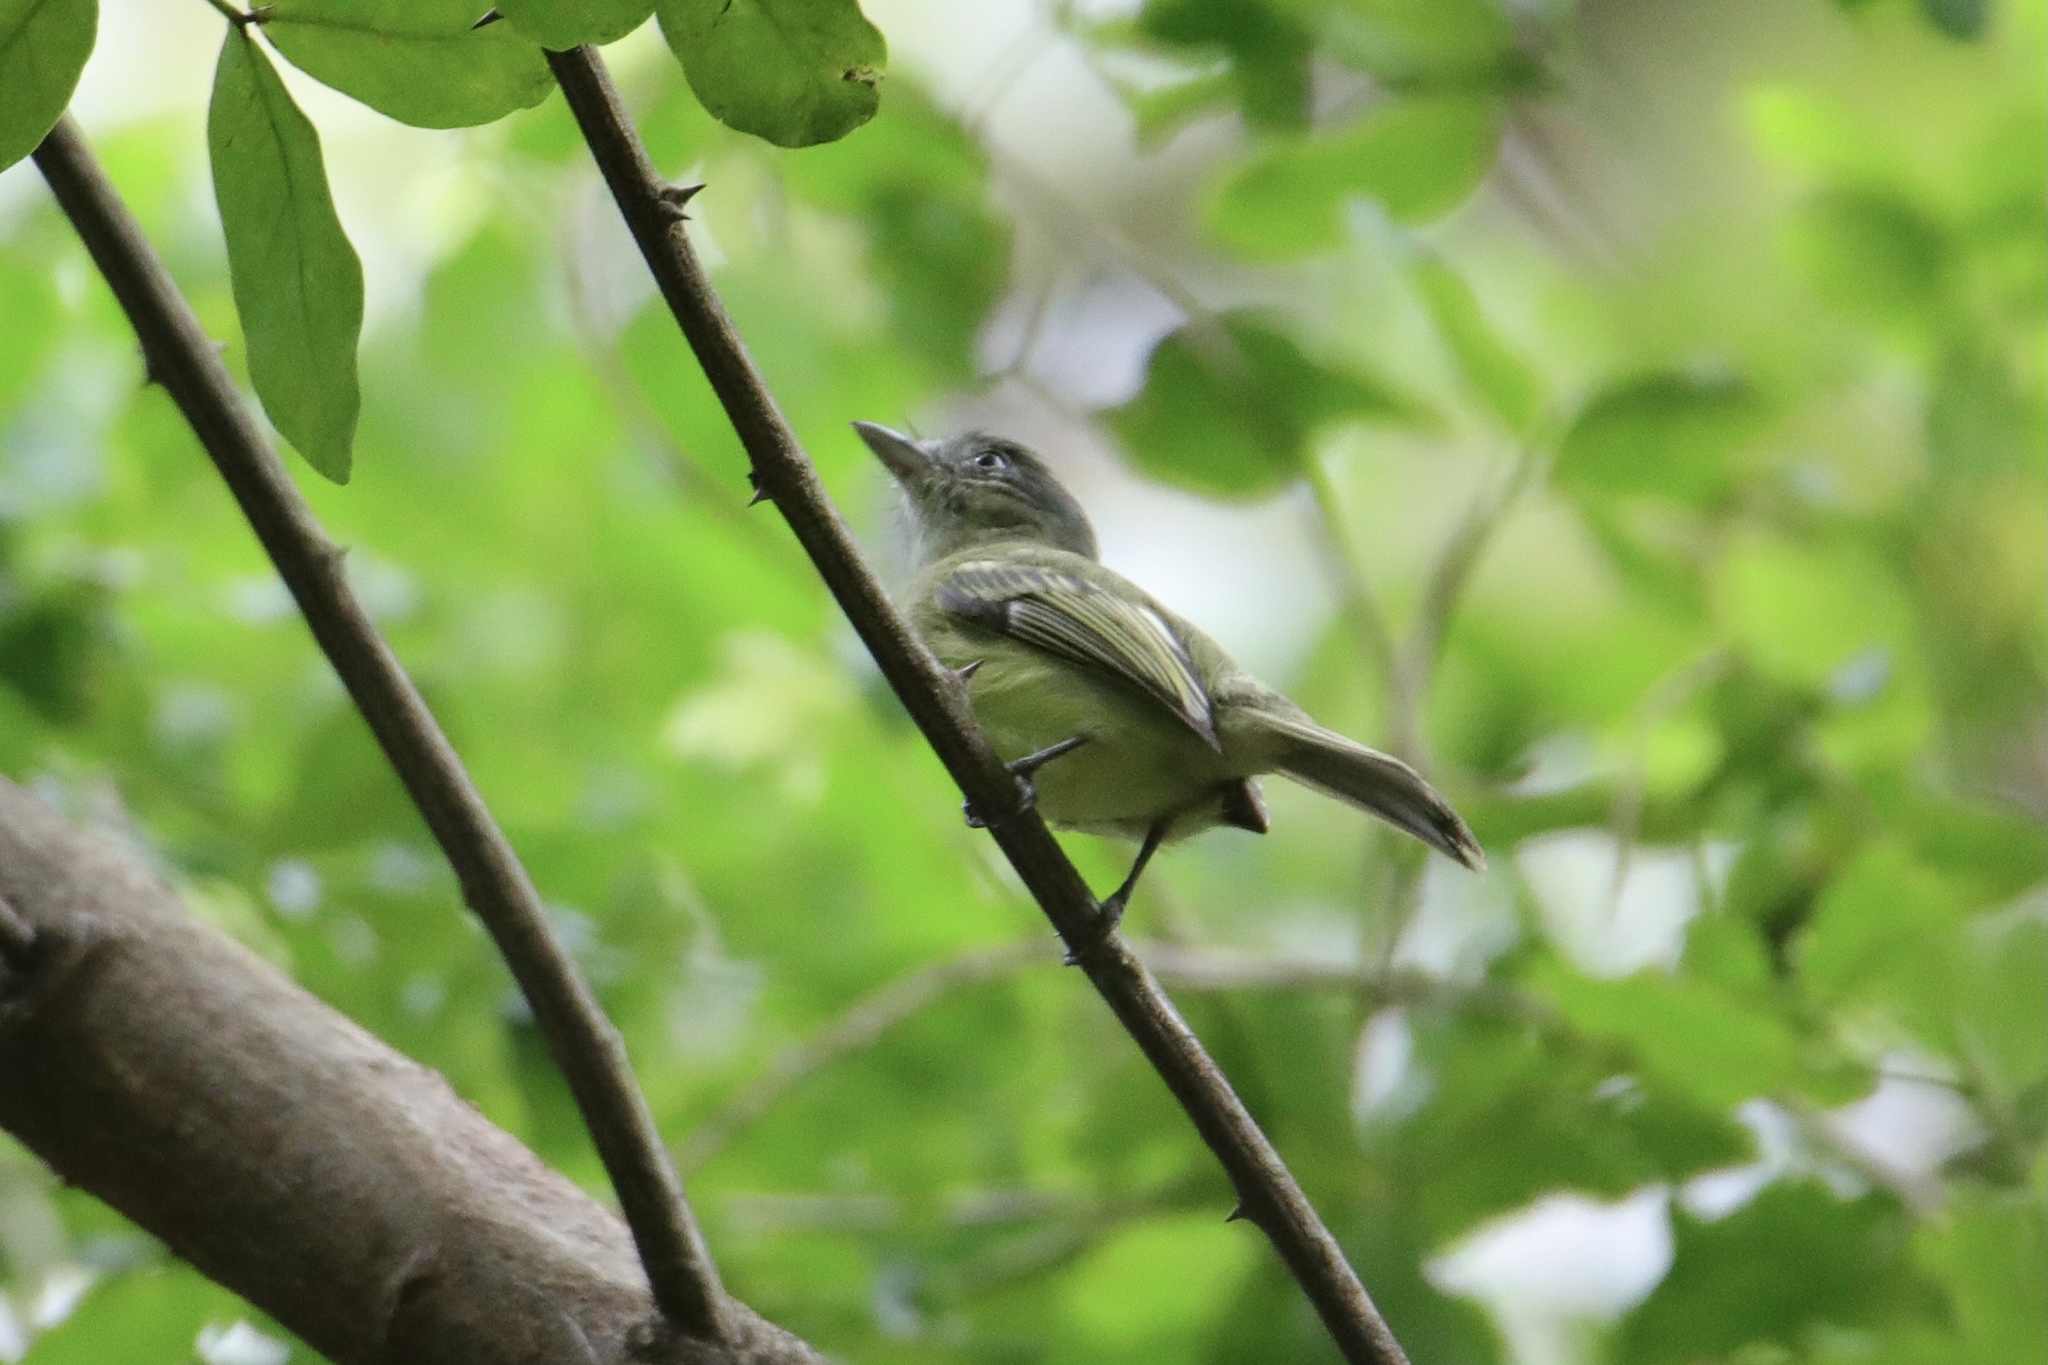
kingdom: Animalia
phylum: Chordata
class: Aves
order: Passeriformes
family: Tyrannidae
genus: Tolmomyias
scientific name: Tolmomyias sulphurescens
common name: Yellow-olive flycatcher
